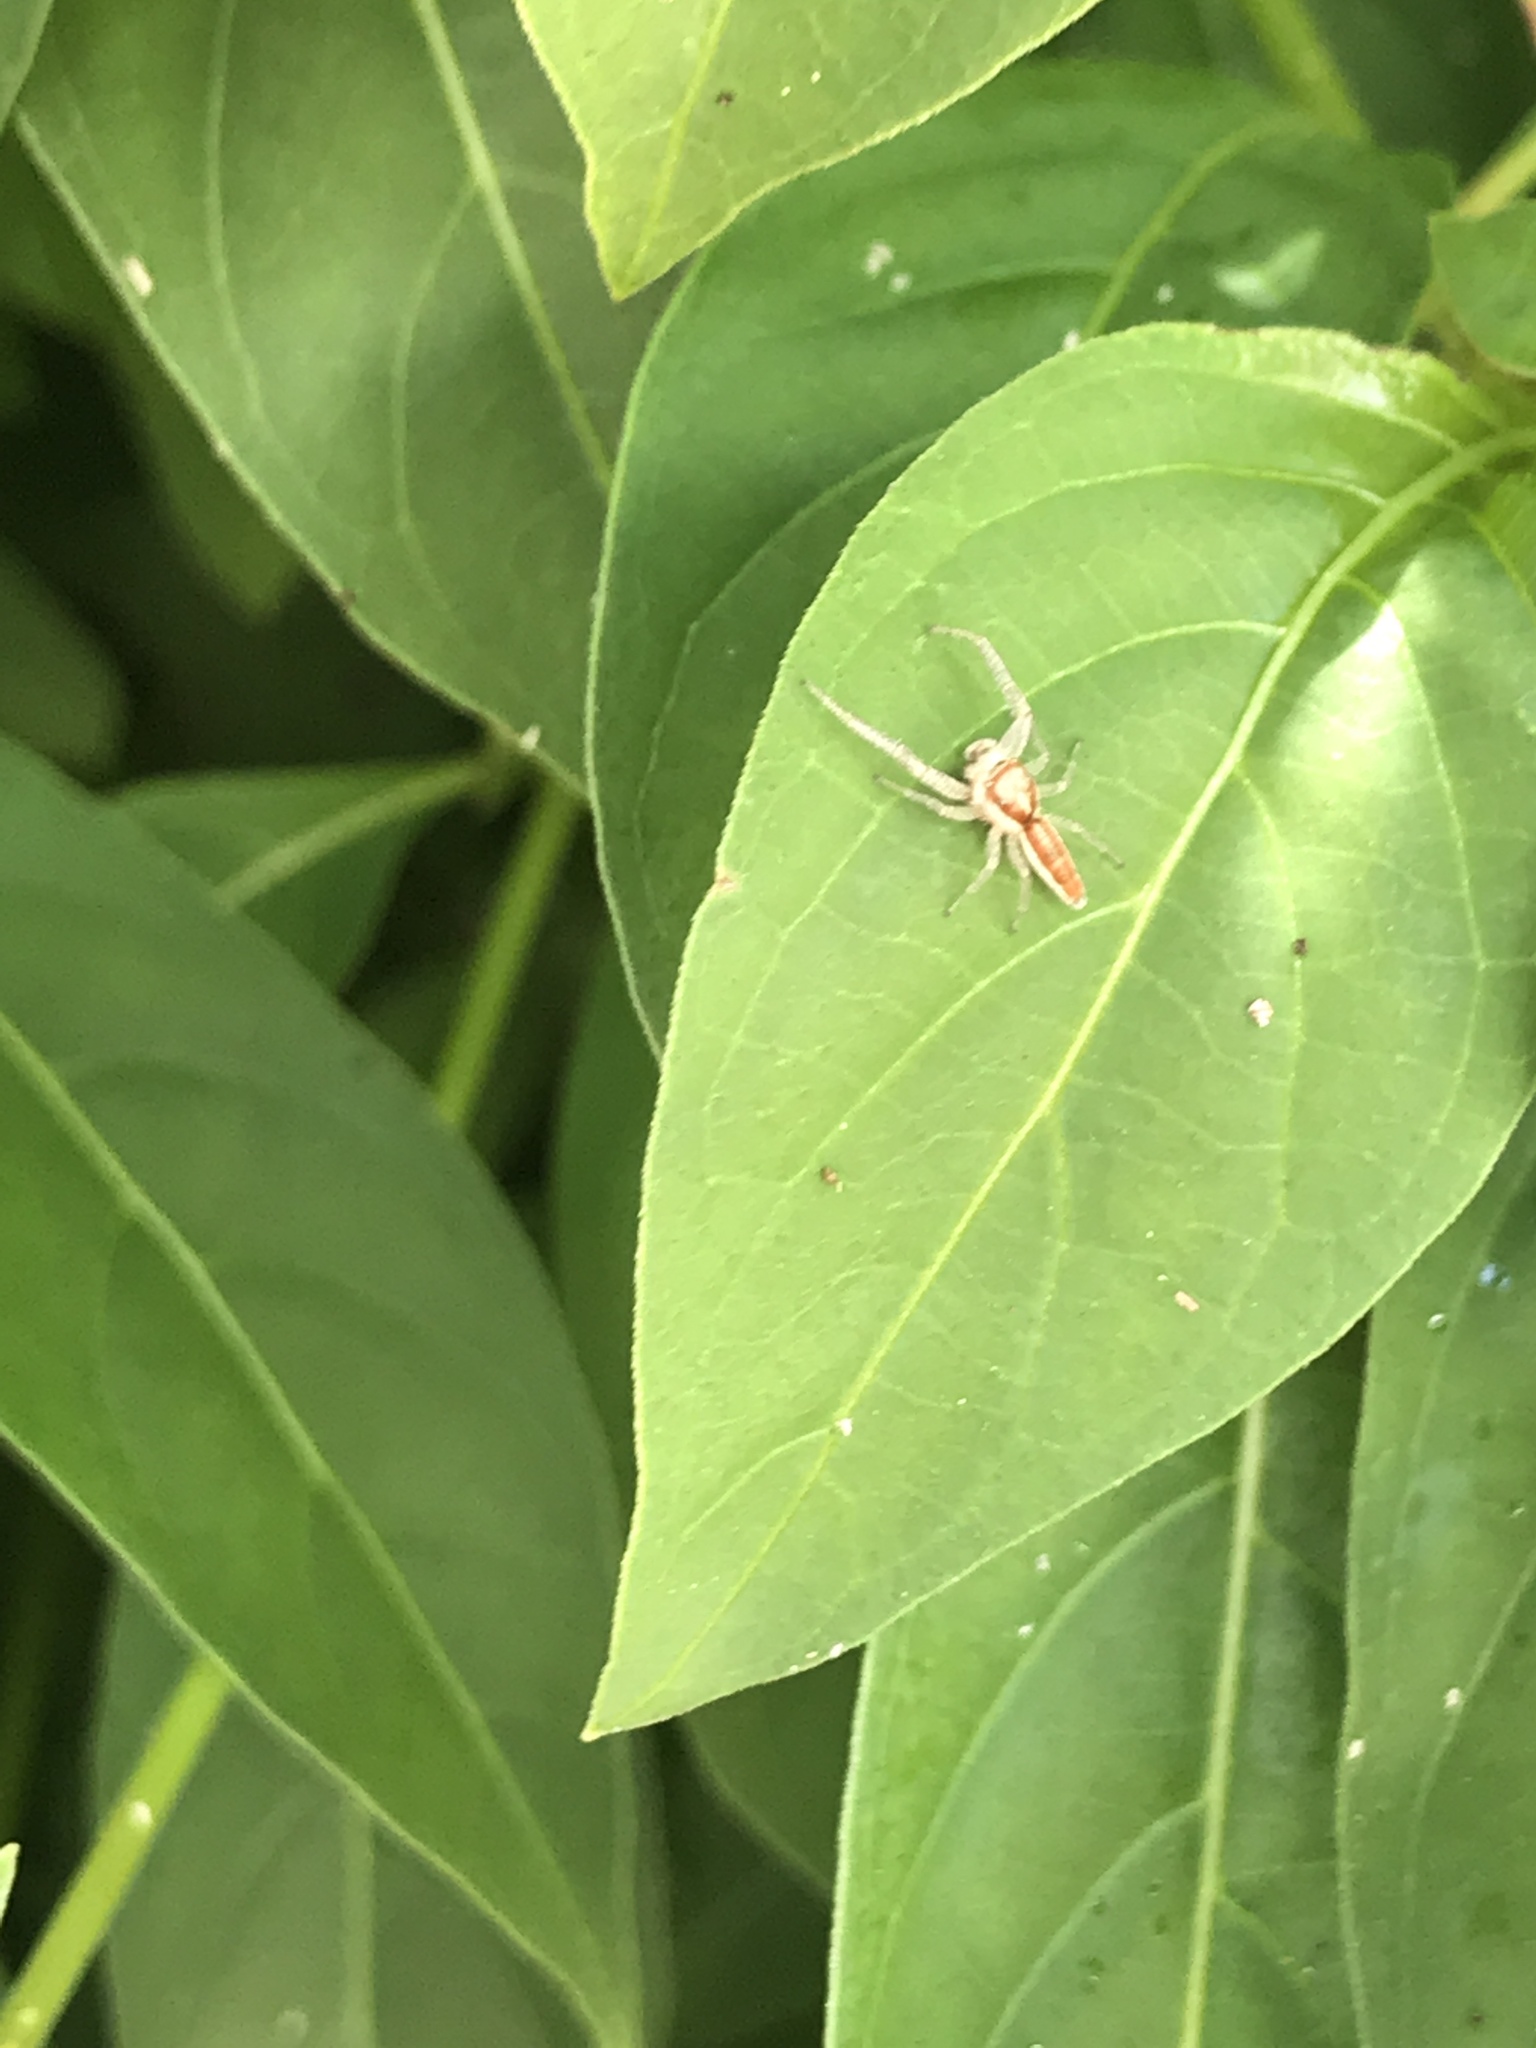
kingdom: Animalia
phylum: Arthropoda
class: Arachnida
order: Araneae
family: Salticidae
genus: Hentzia
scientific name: Hentzia mitrata
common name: White-jawed jumping spider
